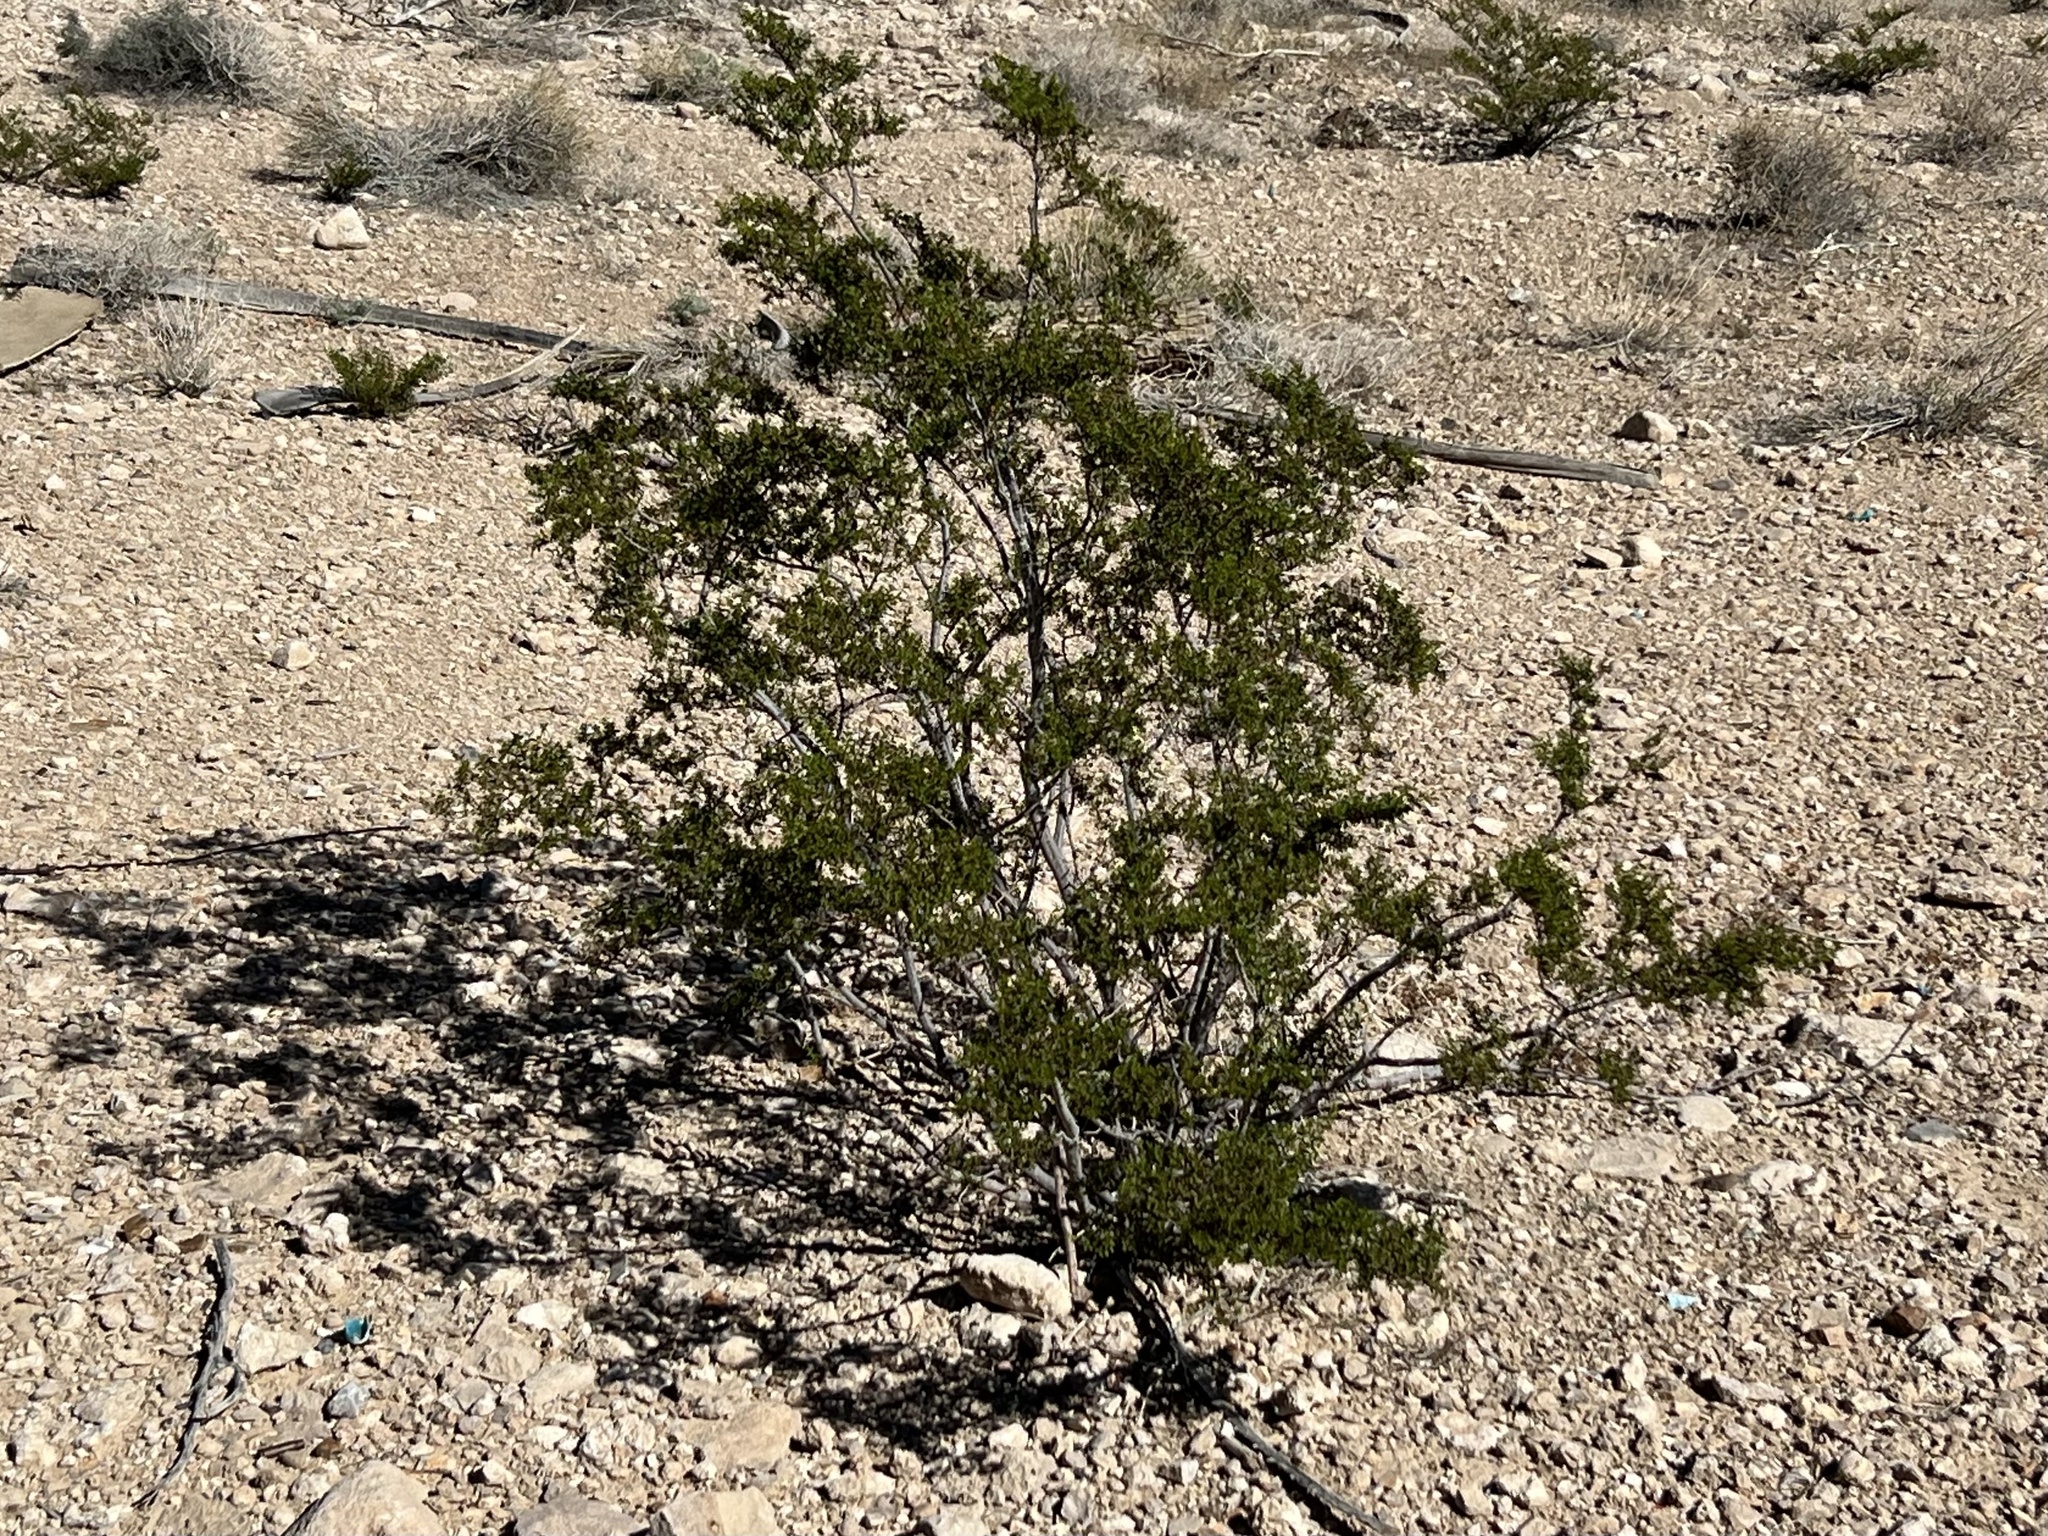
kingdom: Plantae
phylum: Tracheophyta
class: Magnoliopsida
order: Zygophyllales
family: Zygophyllaceae
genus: Larrea
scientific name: Larrea tridentata
